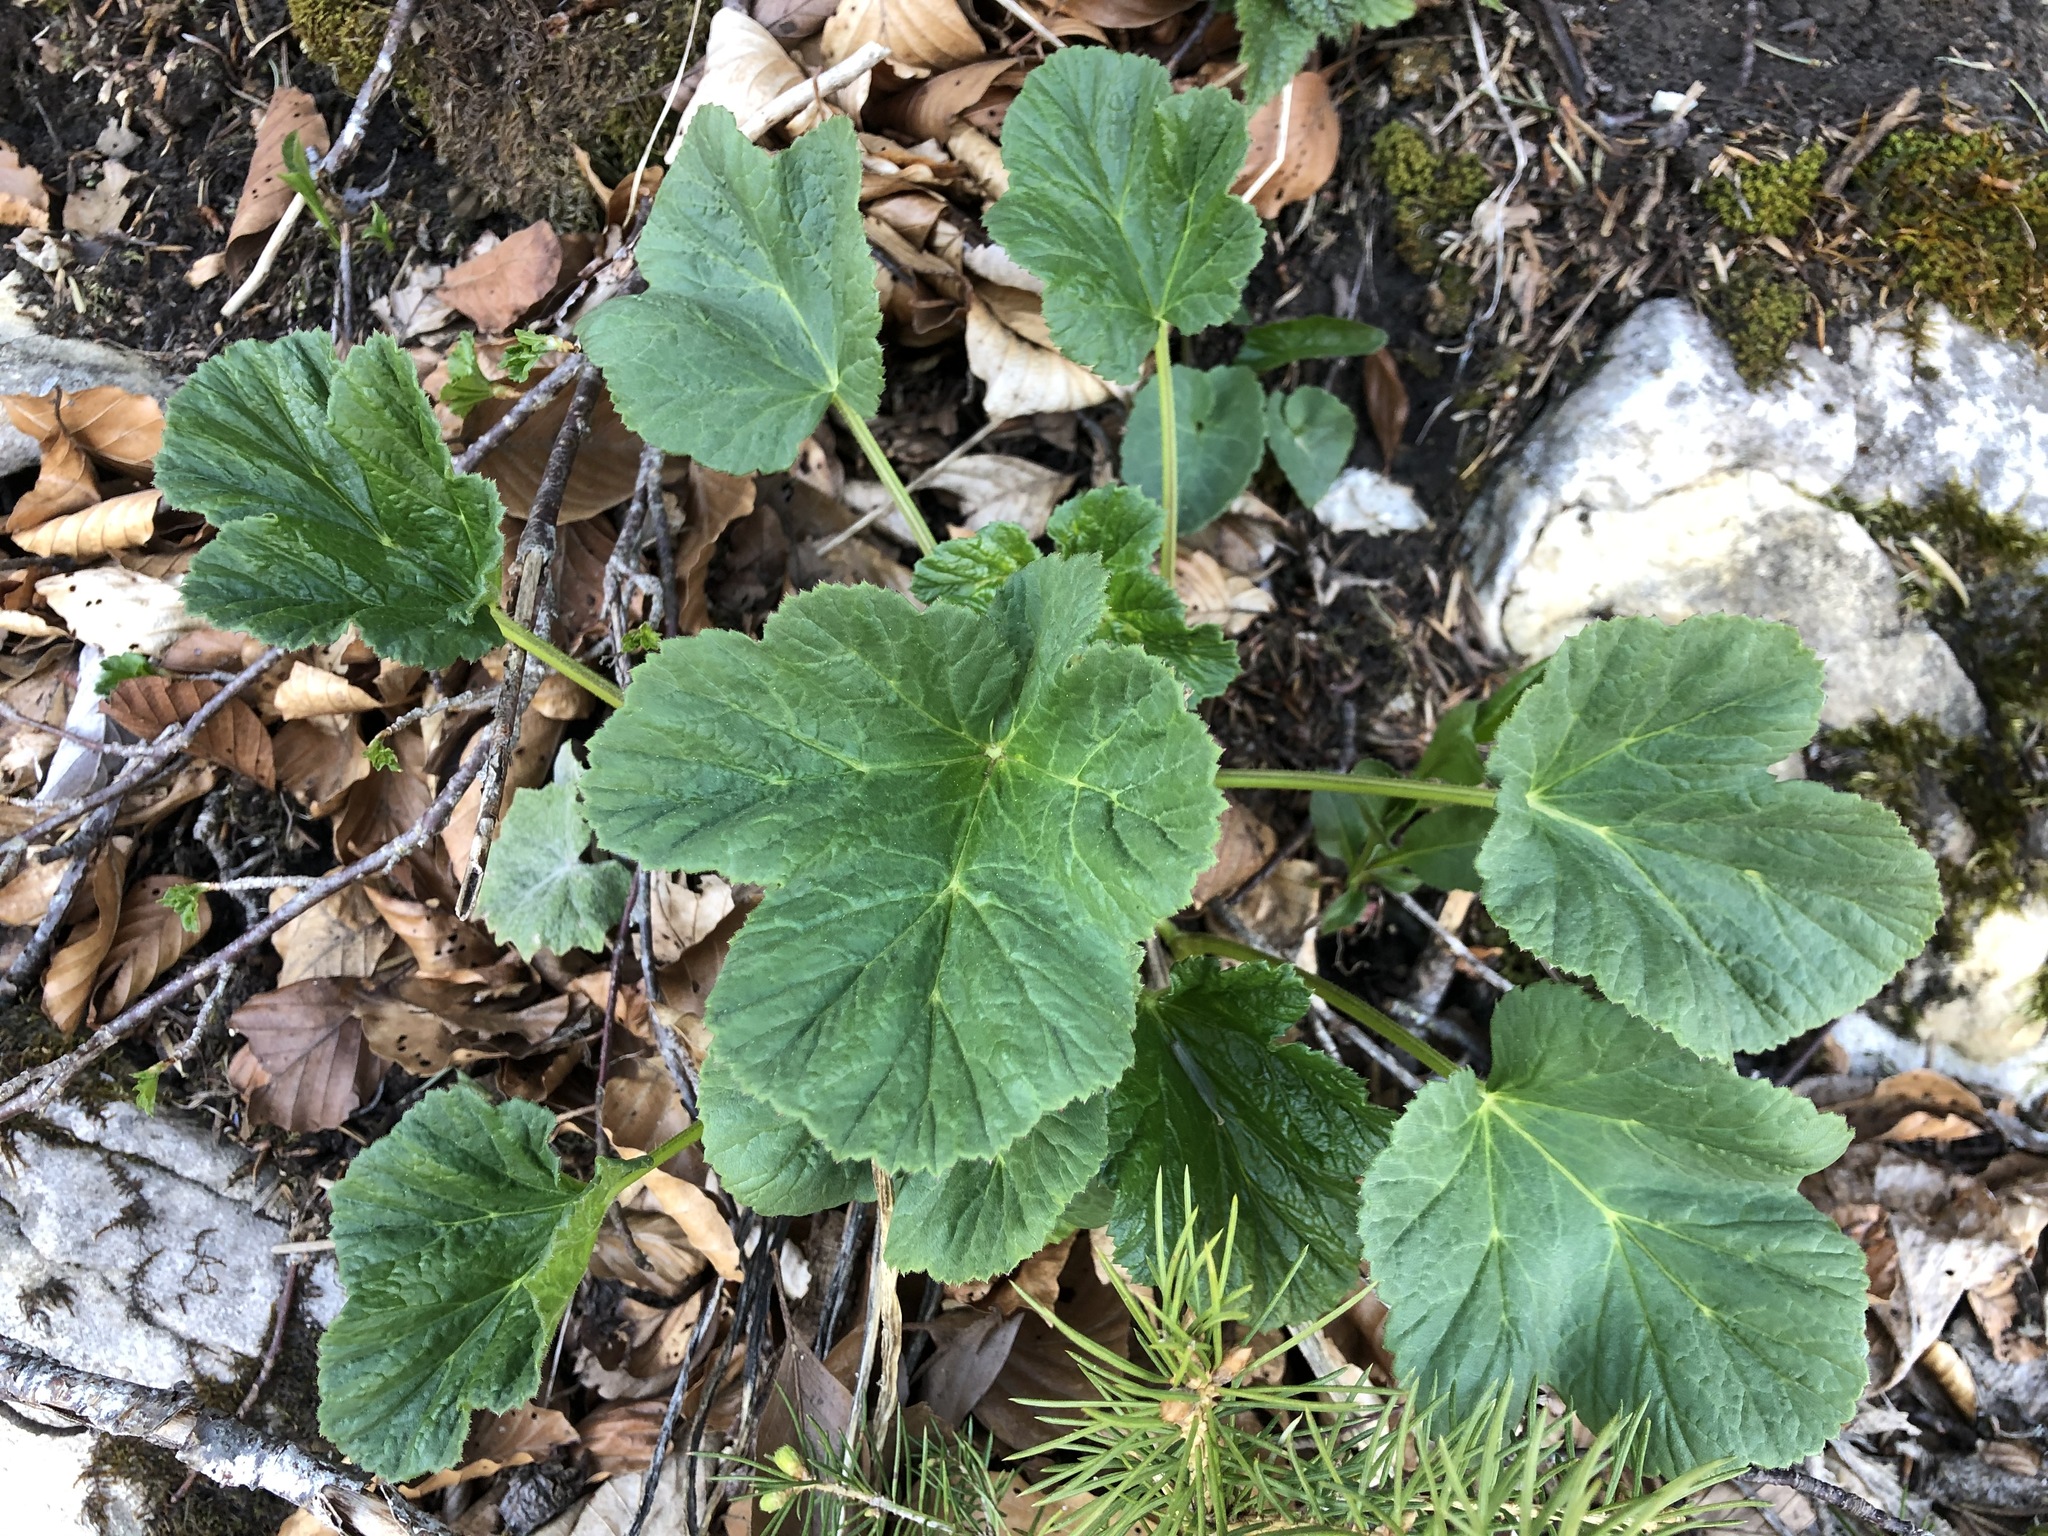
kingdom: Plantae
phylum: Tracheophyta
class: Magnoliopsida
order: Apiales
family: Apiaceae
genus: Heracleum
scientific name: Heracleum sphondylium
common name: Hogweed
